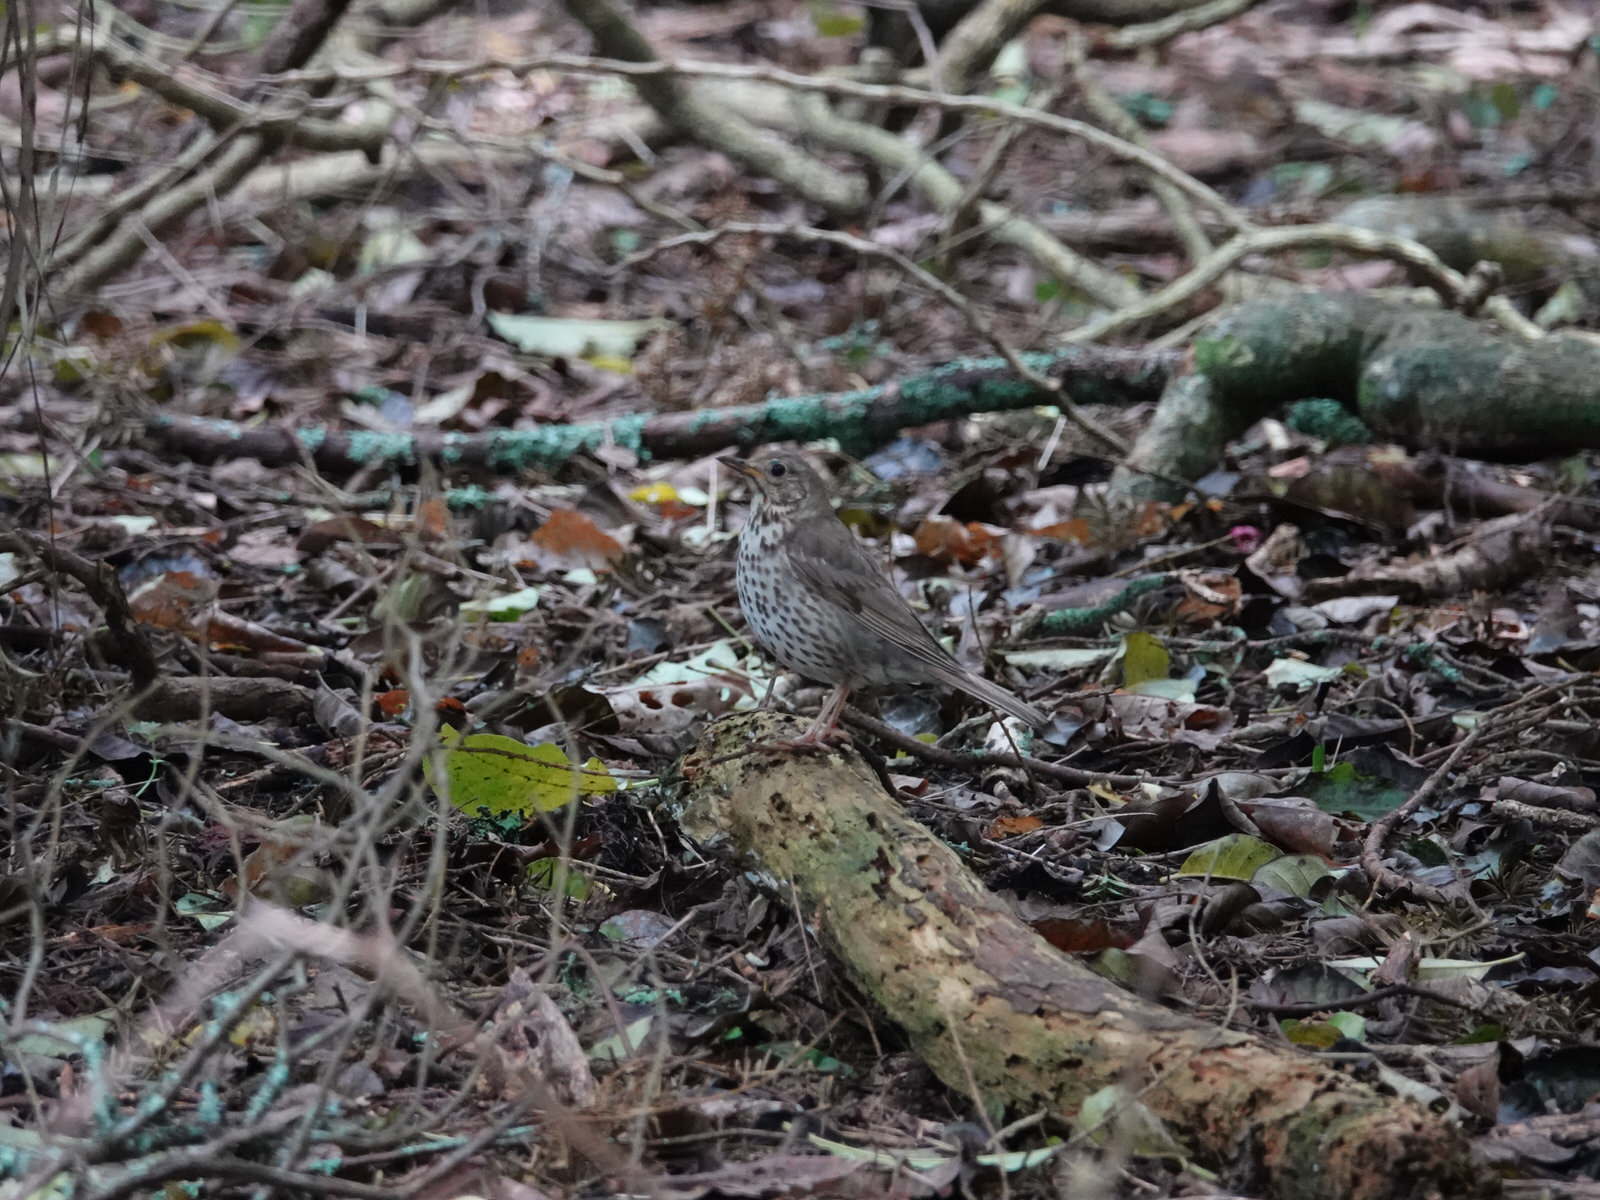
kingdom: Animalia
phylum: Chordata
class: Aves
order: Passeriformes
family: Turdidae
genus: Turdus
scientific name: Turdus philomelos
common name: Song thrush
